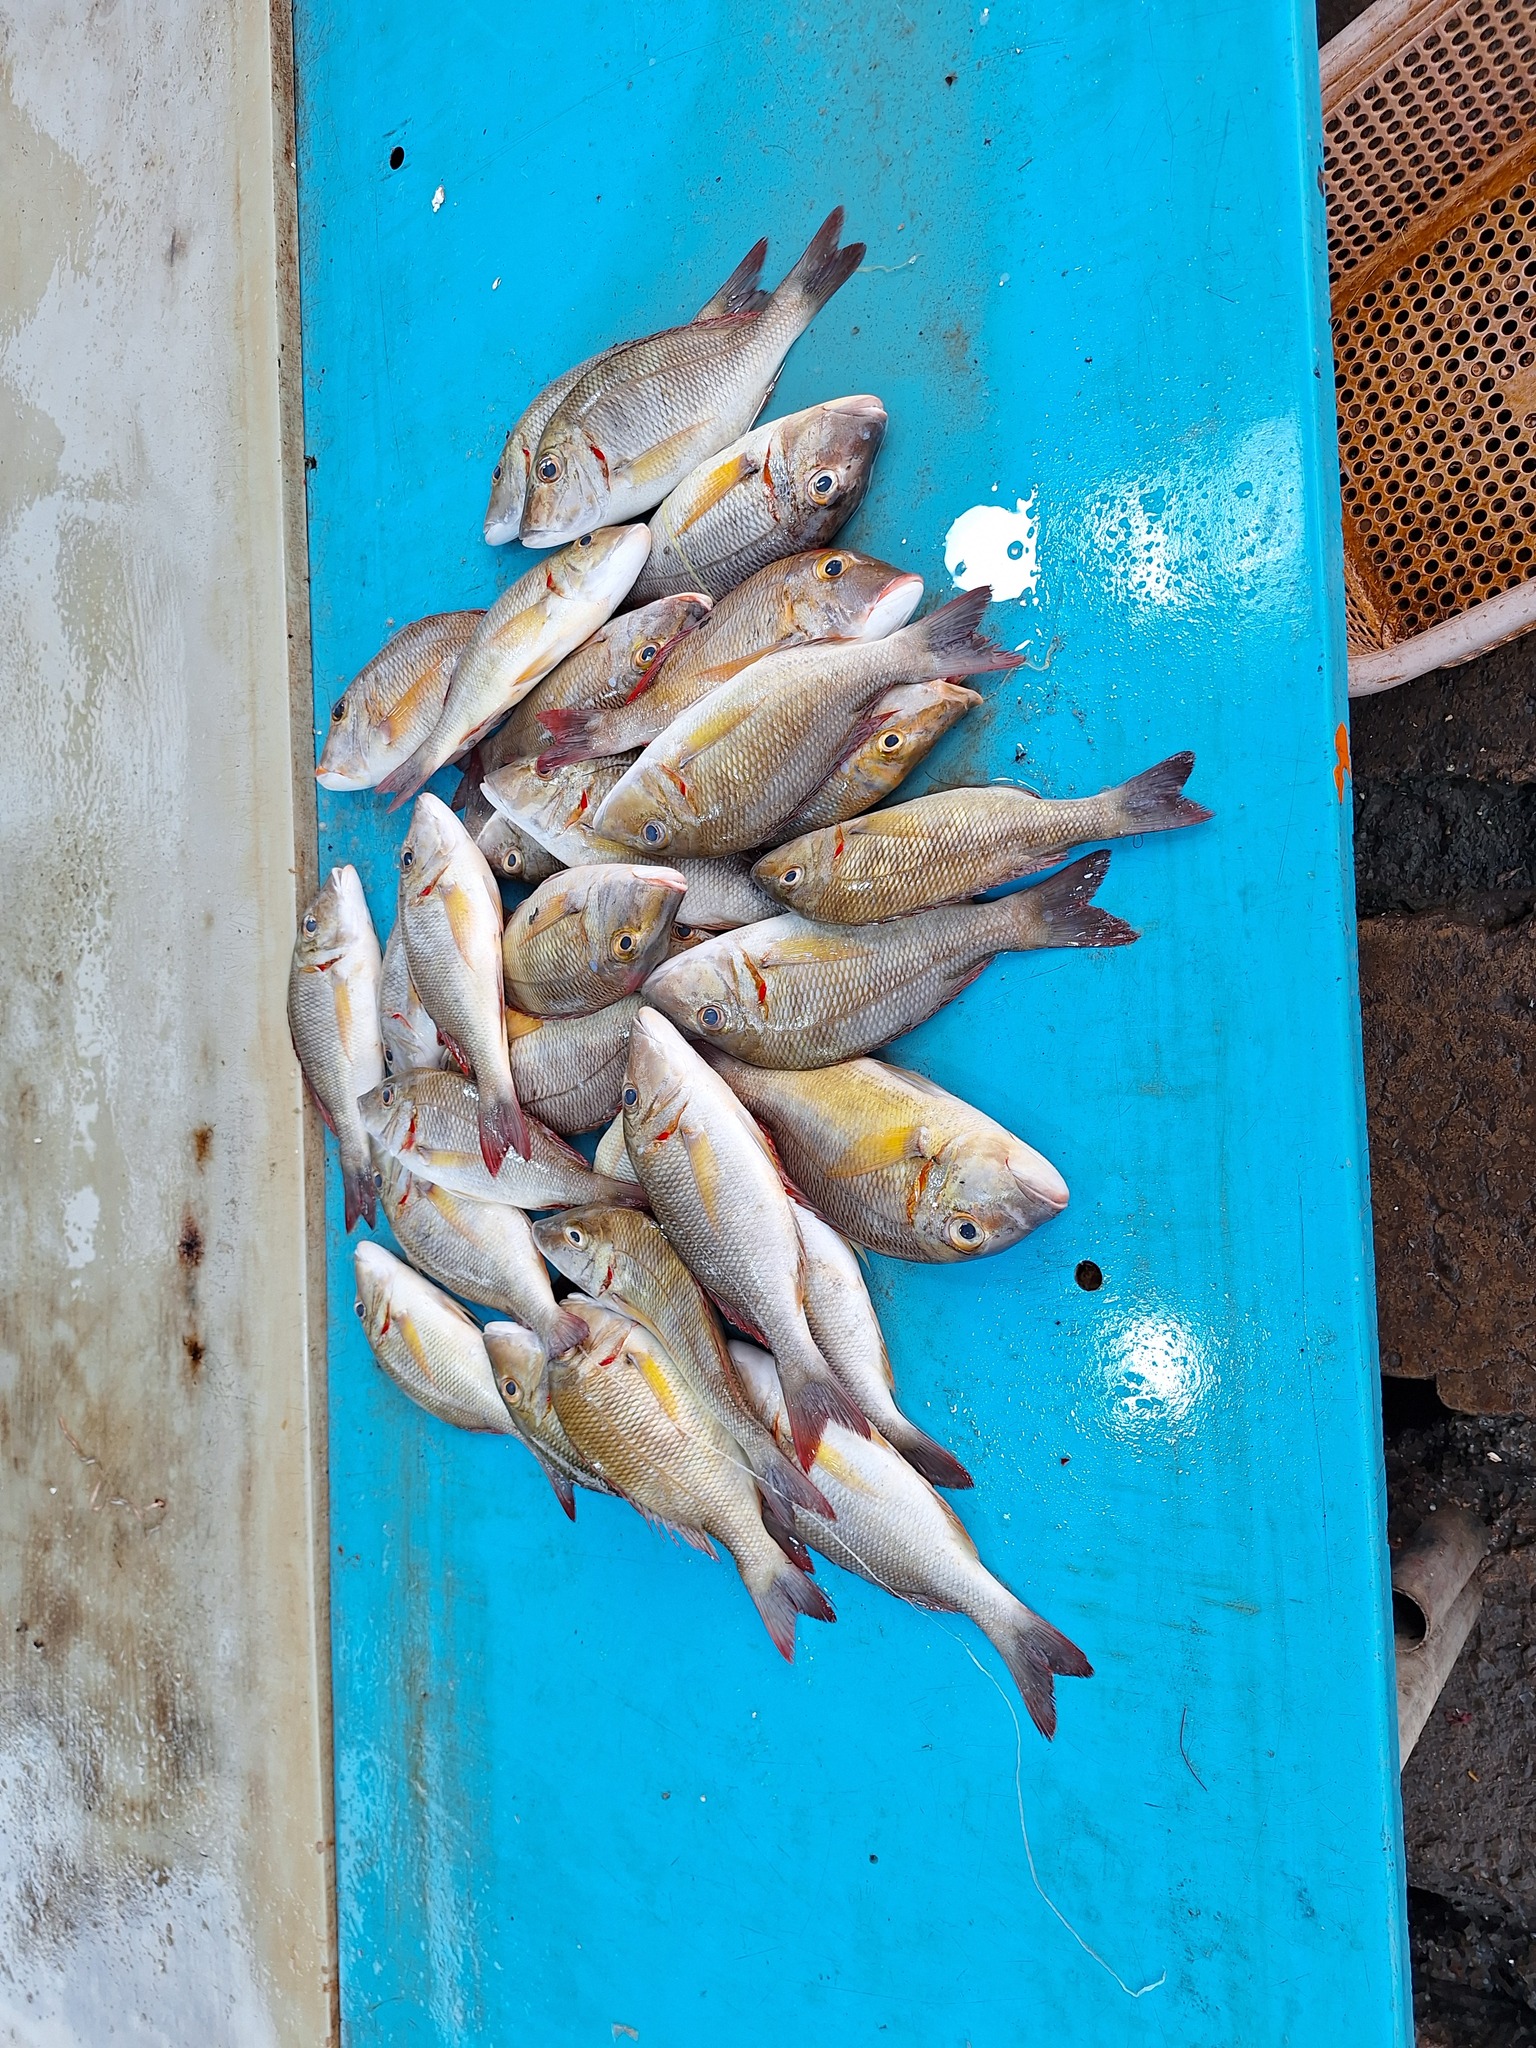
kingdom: Animalia
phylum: Chordata
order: Perciformes
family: Lethrinidae
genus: Lethrinus
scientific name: Lethrinus lentjan
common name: Redspot emperor
